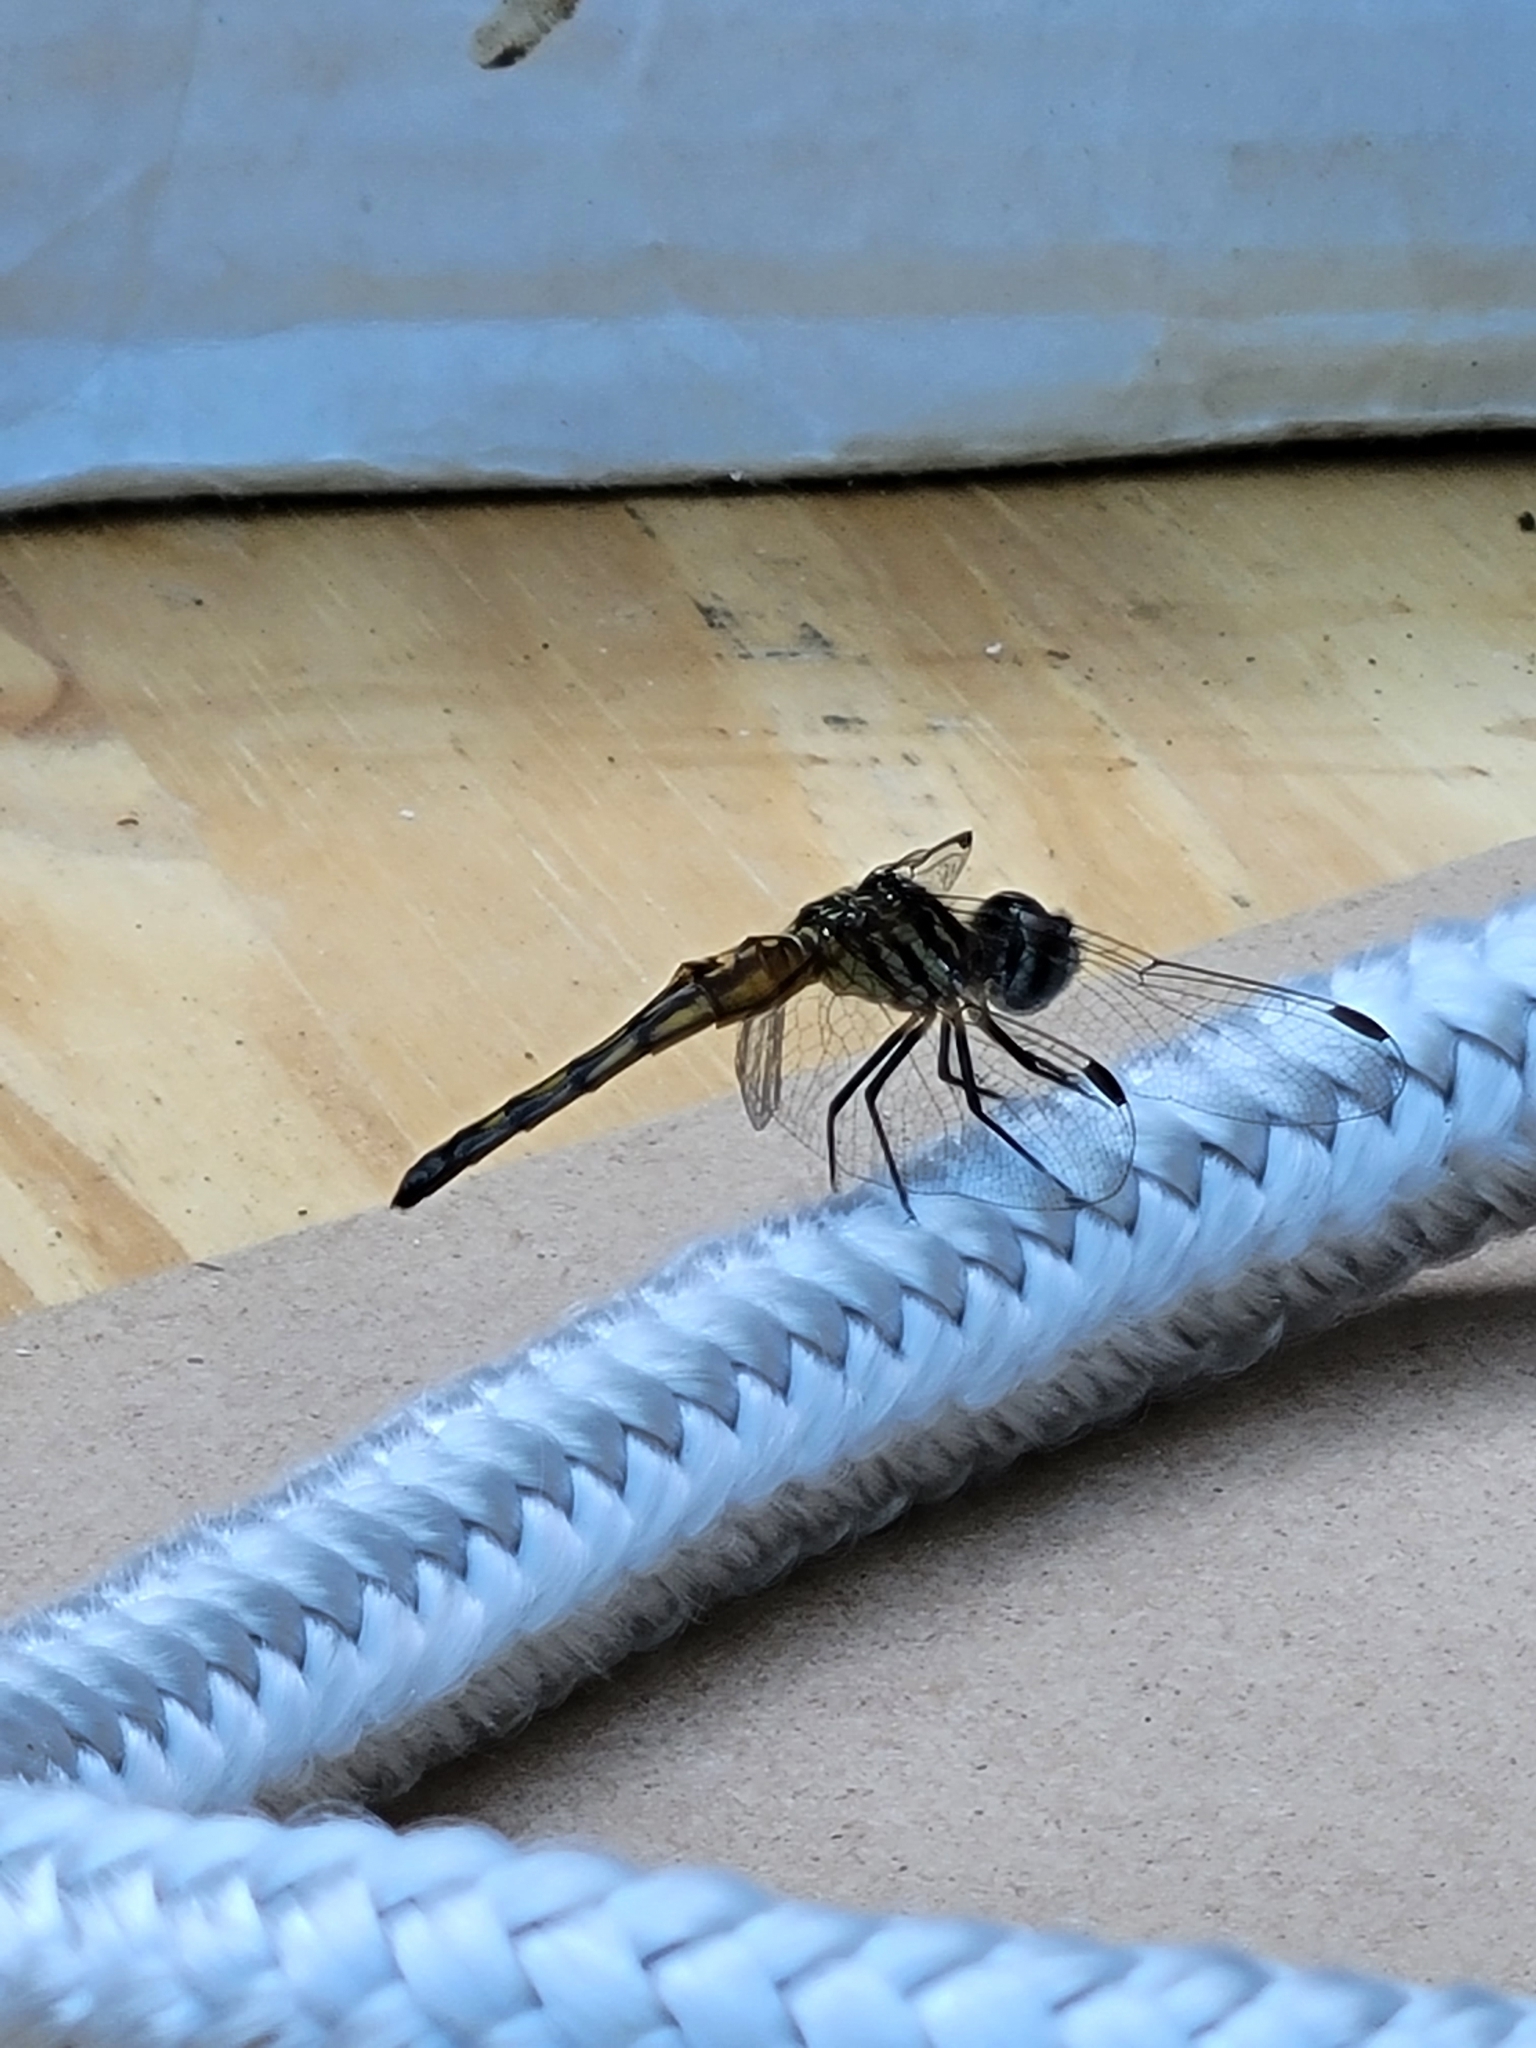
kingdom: Animalia
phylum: Arthropoda
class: Insecta
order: Odonata
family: Libellulidae
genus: Pachydiplax
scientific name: Pachydiplax longipennis
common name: Blue dasher
